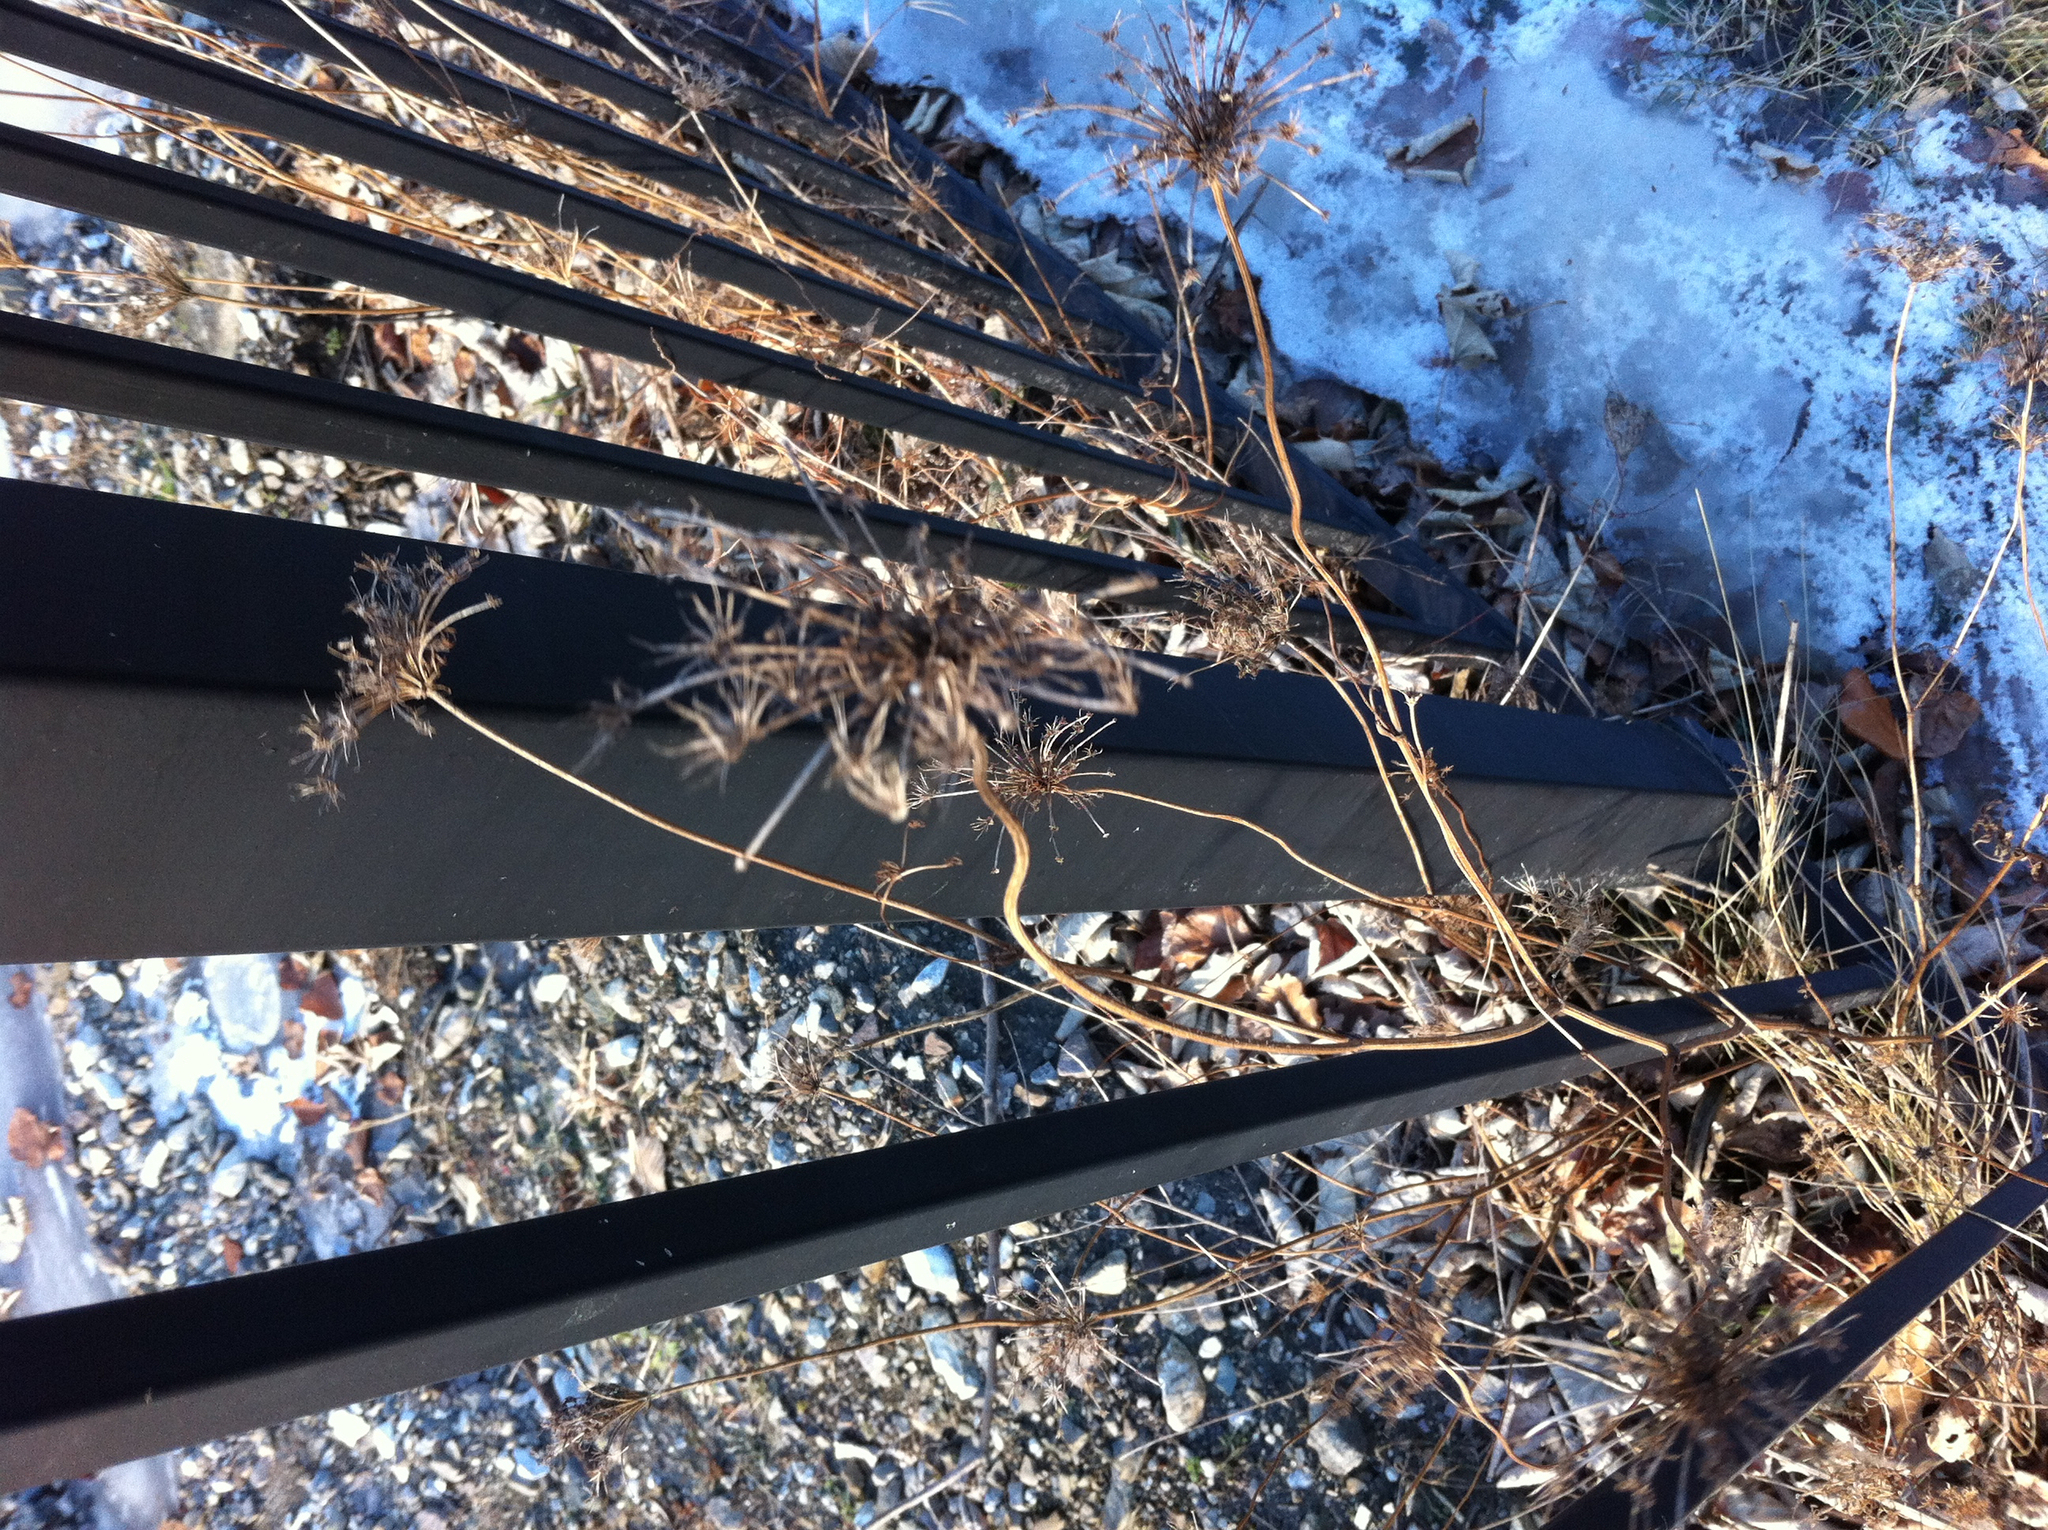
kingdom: Plantae
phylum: Tracheophyta
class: Magnoliopsida
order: Apiales
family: Apiaceae
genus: Daucus
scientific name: Daucus carota
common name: Wild carrot
